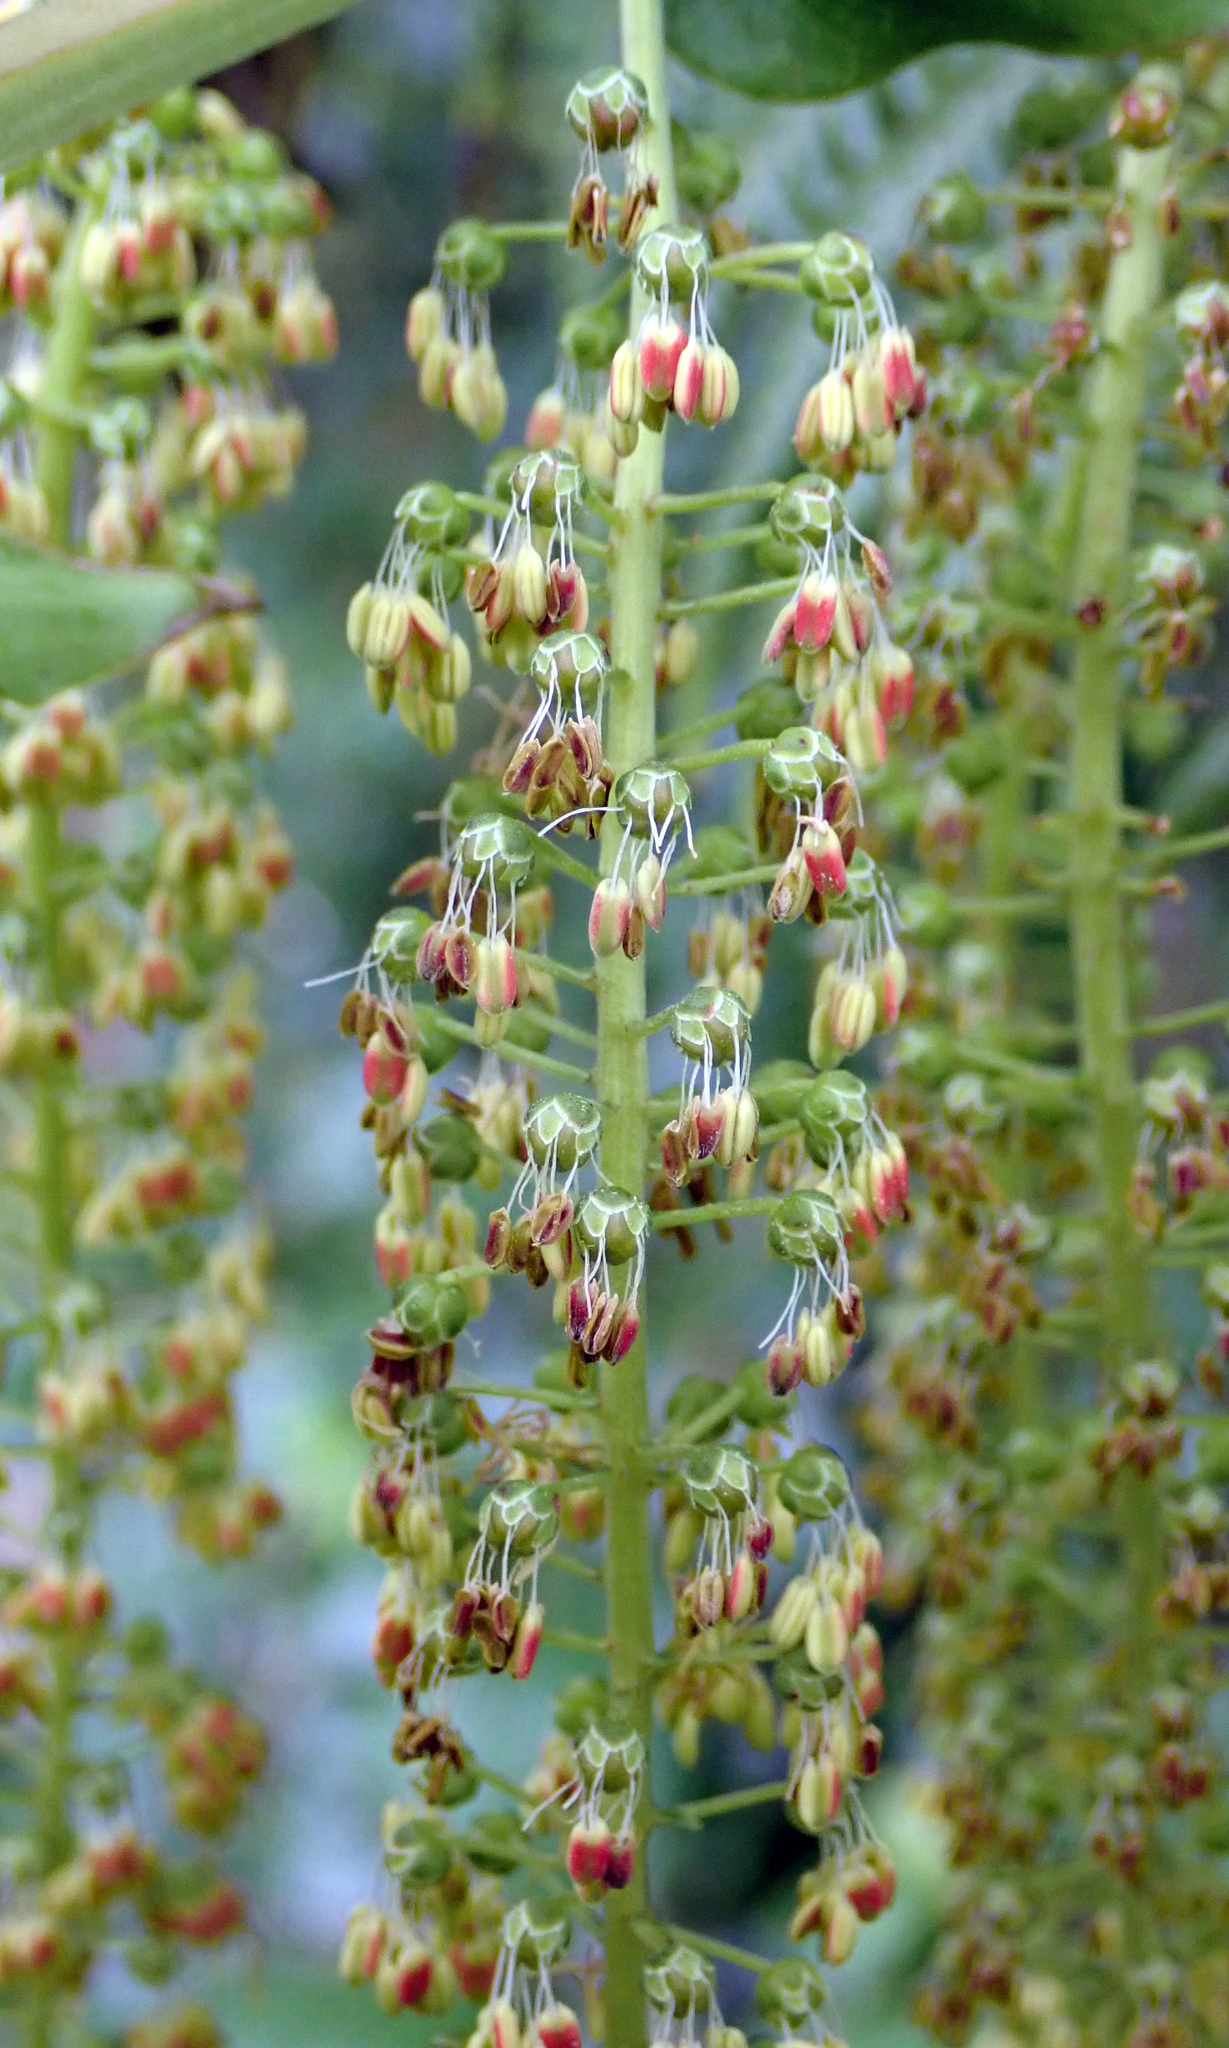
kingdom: Plantae
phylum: Tracheophyta
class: Magnoliopsida
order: Cucurbitales
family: Coriariaceae
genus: Coriaria
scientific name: Coriaria arborea
